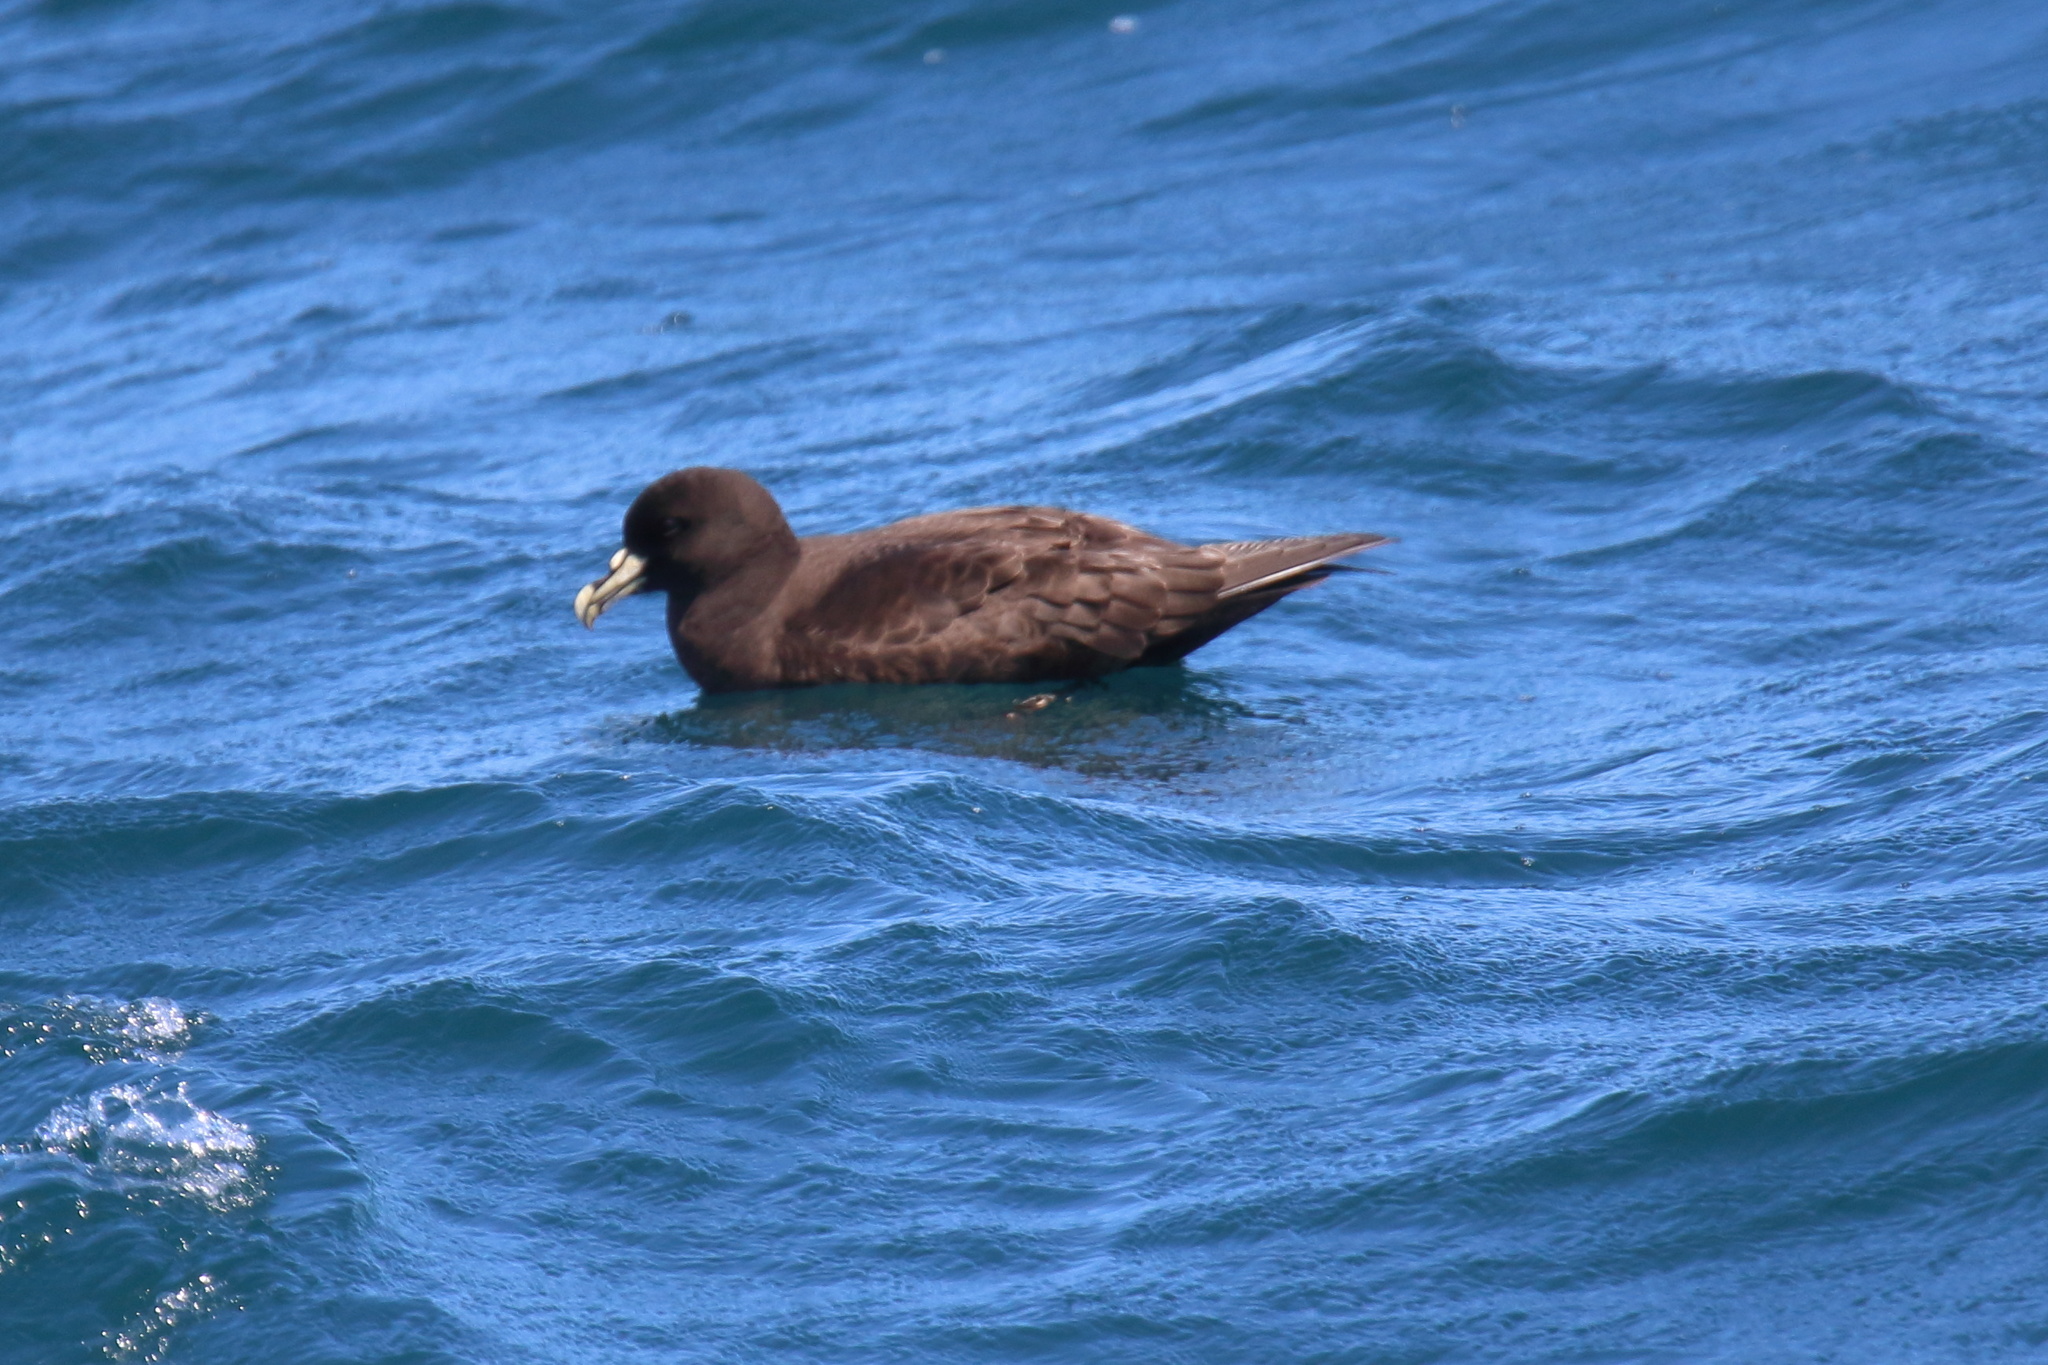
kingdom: Animalia
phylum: Chordata
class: Aves
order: Procellariiformes
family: Procellariidae
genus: Procellaria
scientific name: Procellaria aequinoctialis
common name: White-chinned petrel
